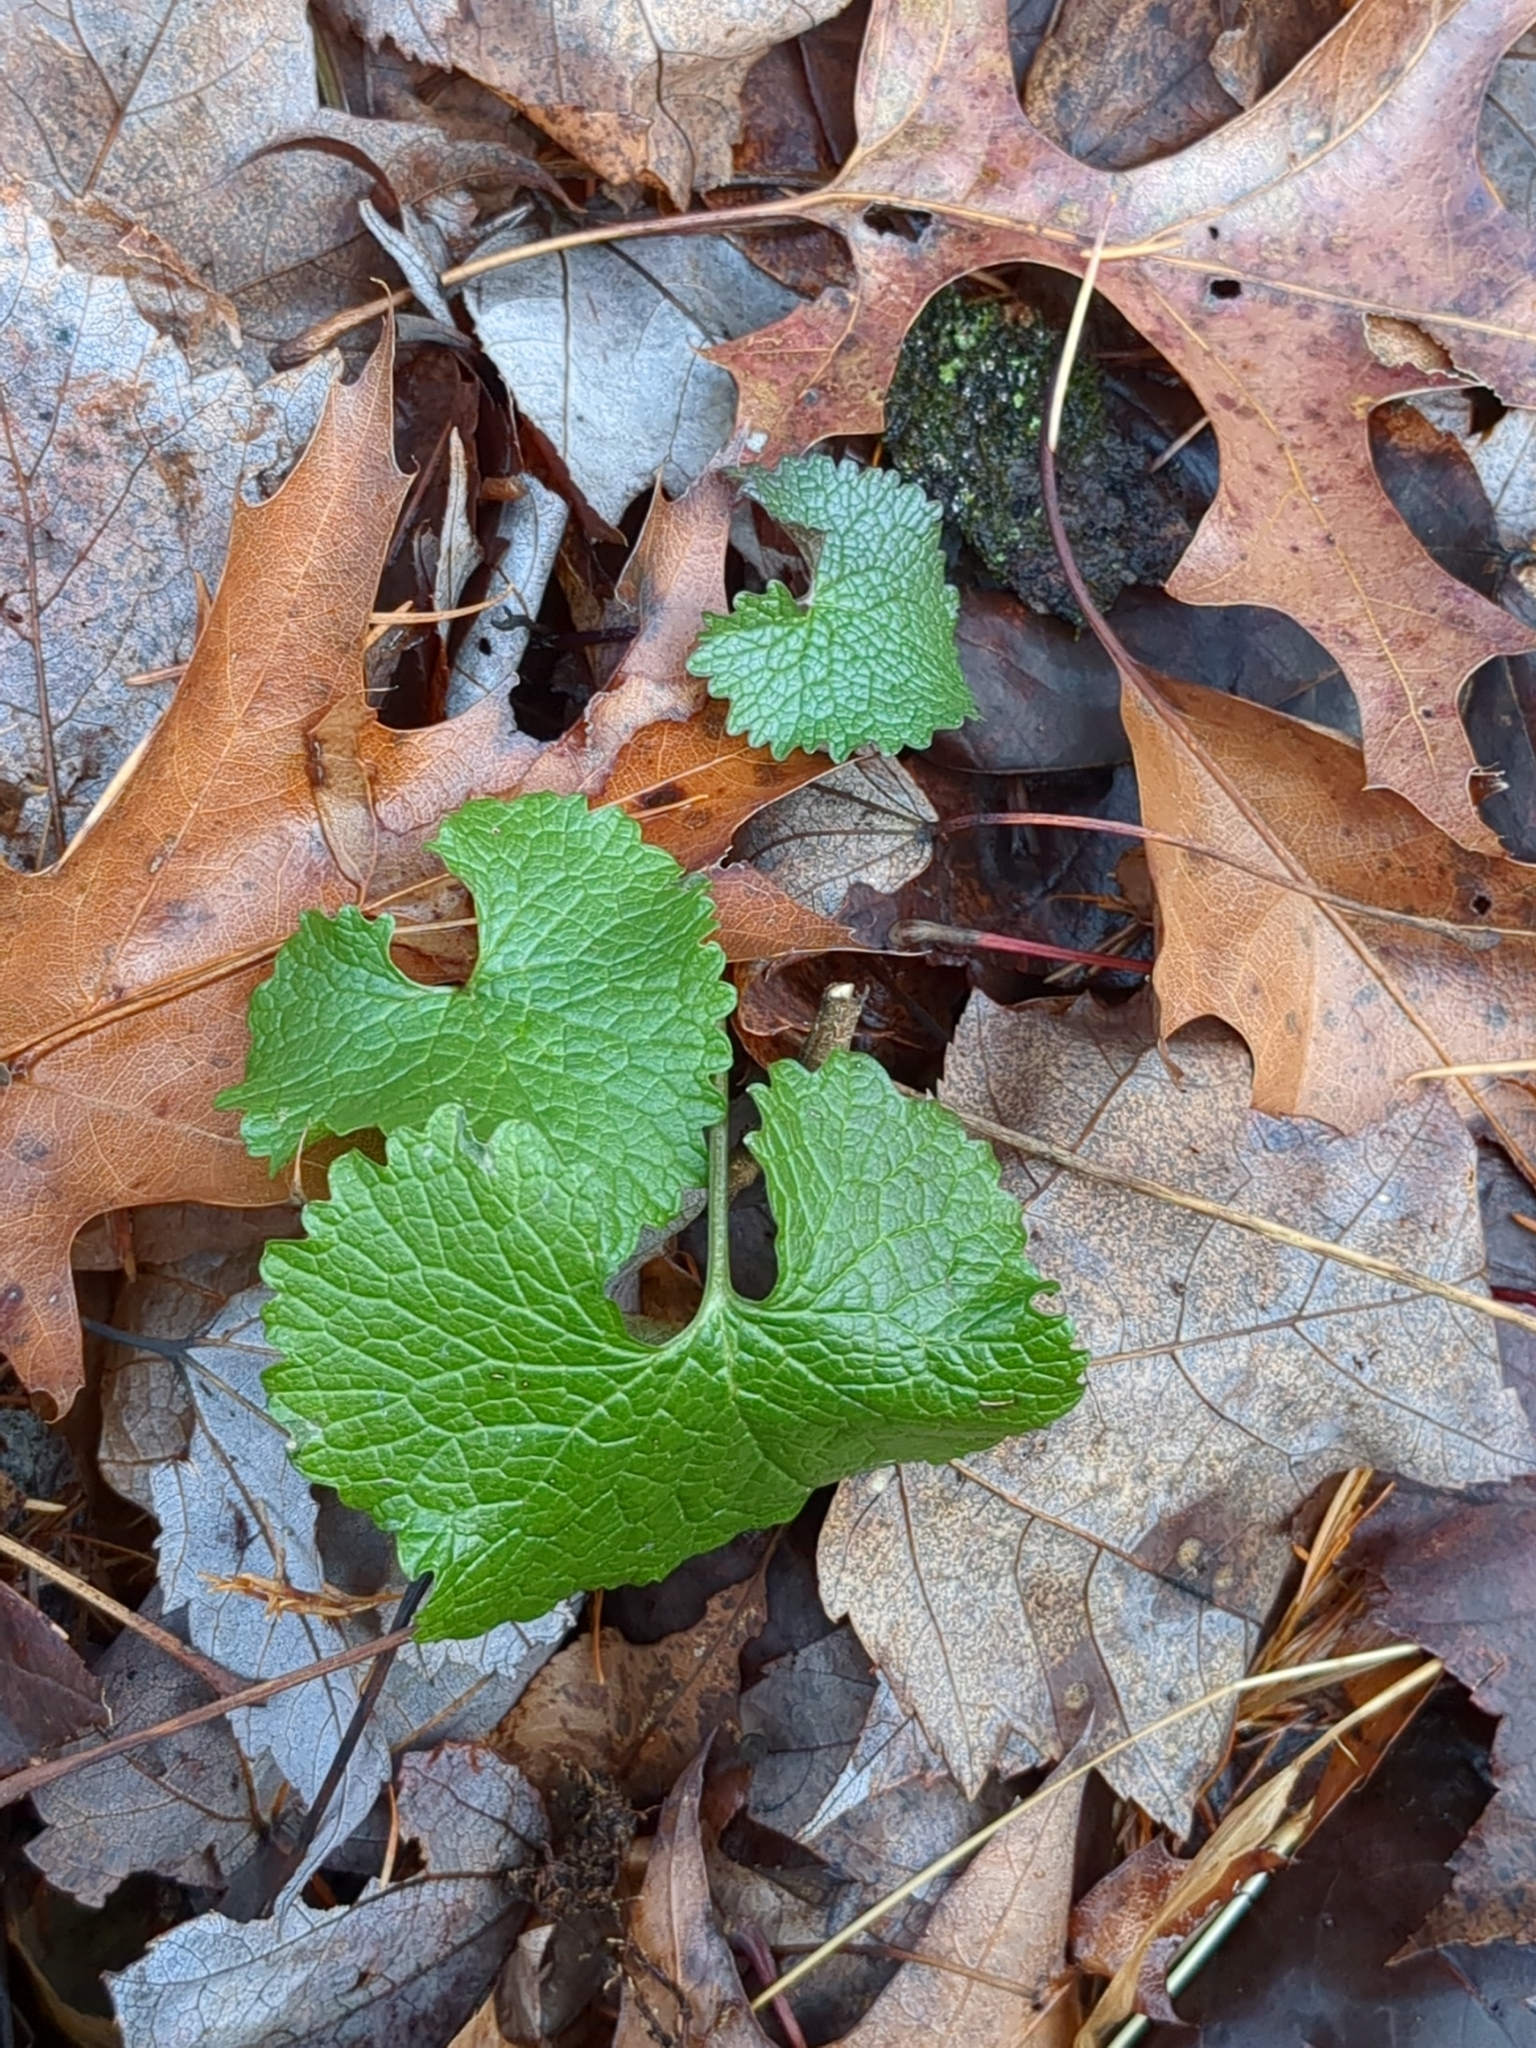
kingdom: Plantae
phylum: Tracheophyta
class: Magnoliopsida
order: Brassicales
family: Brassicaceae
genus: Alliaria
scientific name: Alliaria petiolata
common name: Garlic mustard
